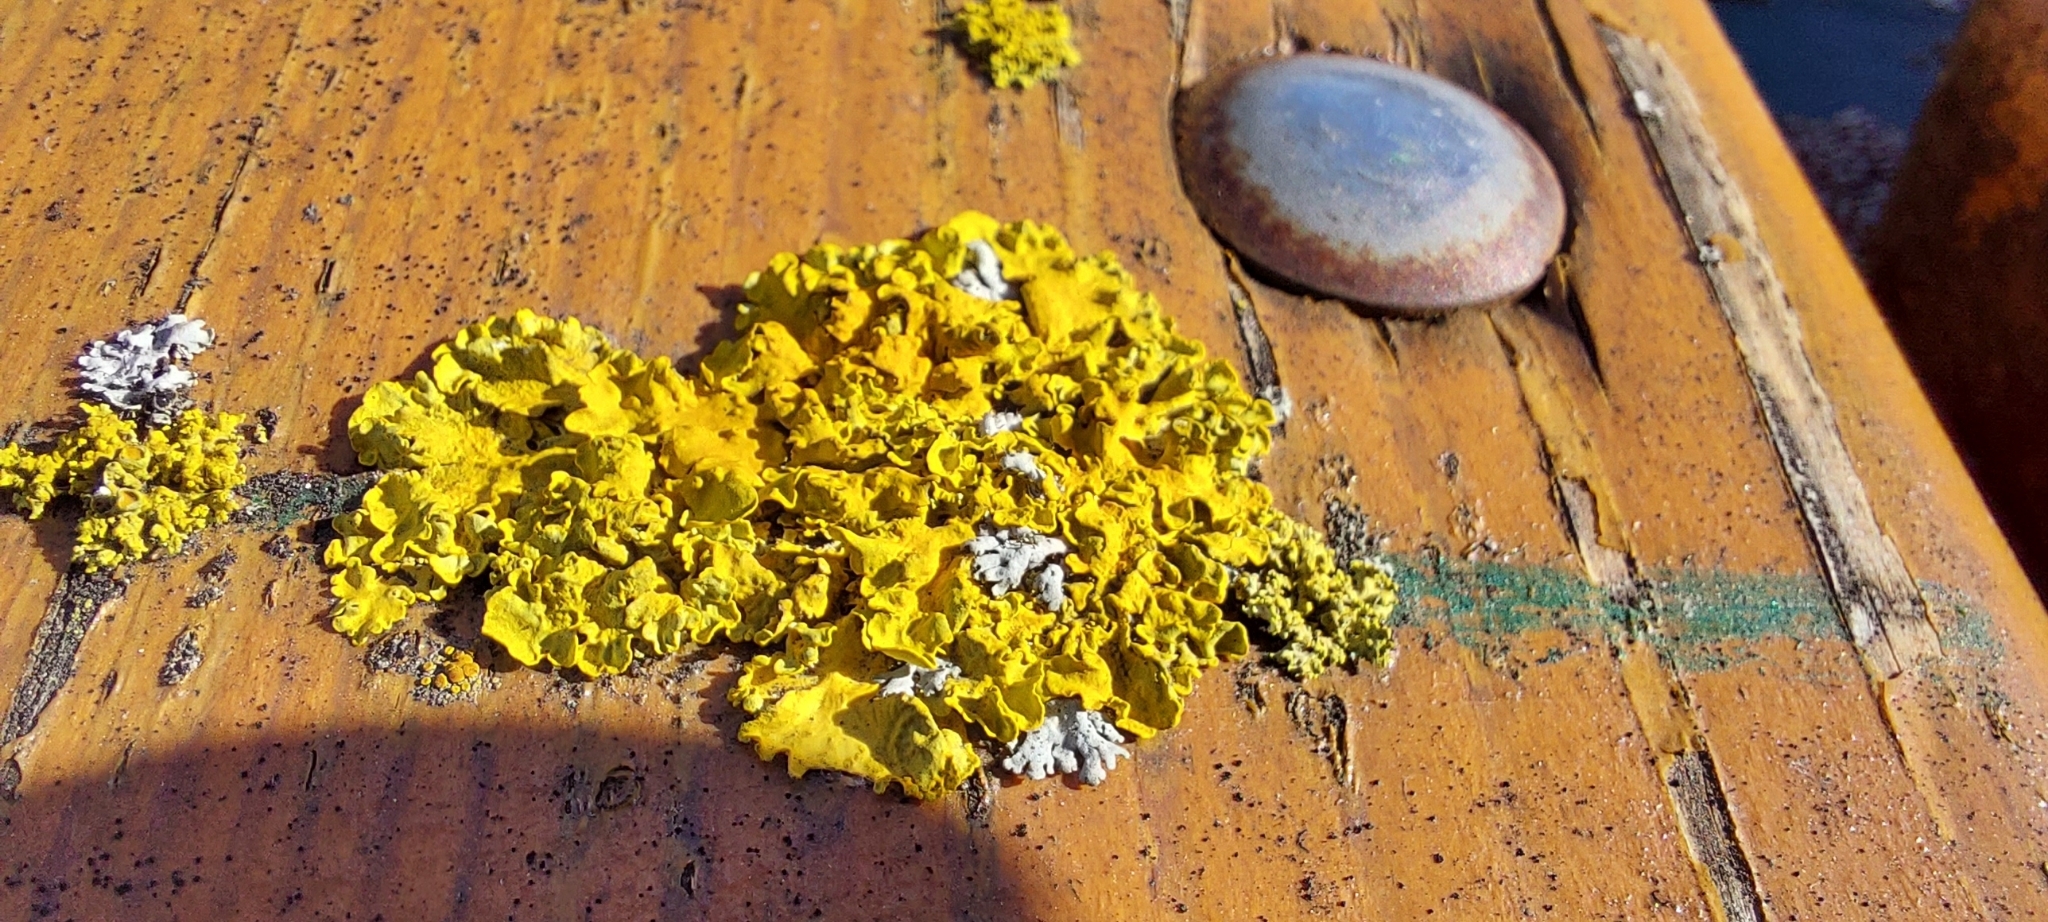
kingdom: Fungi
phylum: Ascomycota
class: Lecanoromycetes
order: Teloschistales
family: Teloschistaceae
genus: Xanthoria
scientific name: Xanthoria parietina
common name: Common orange lichen
